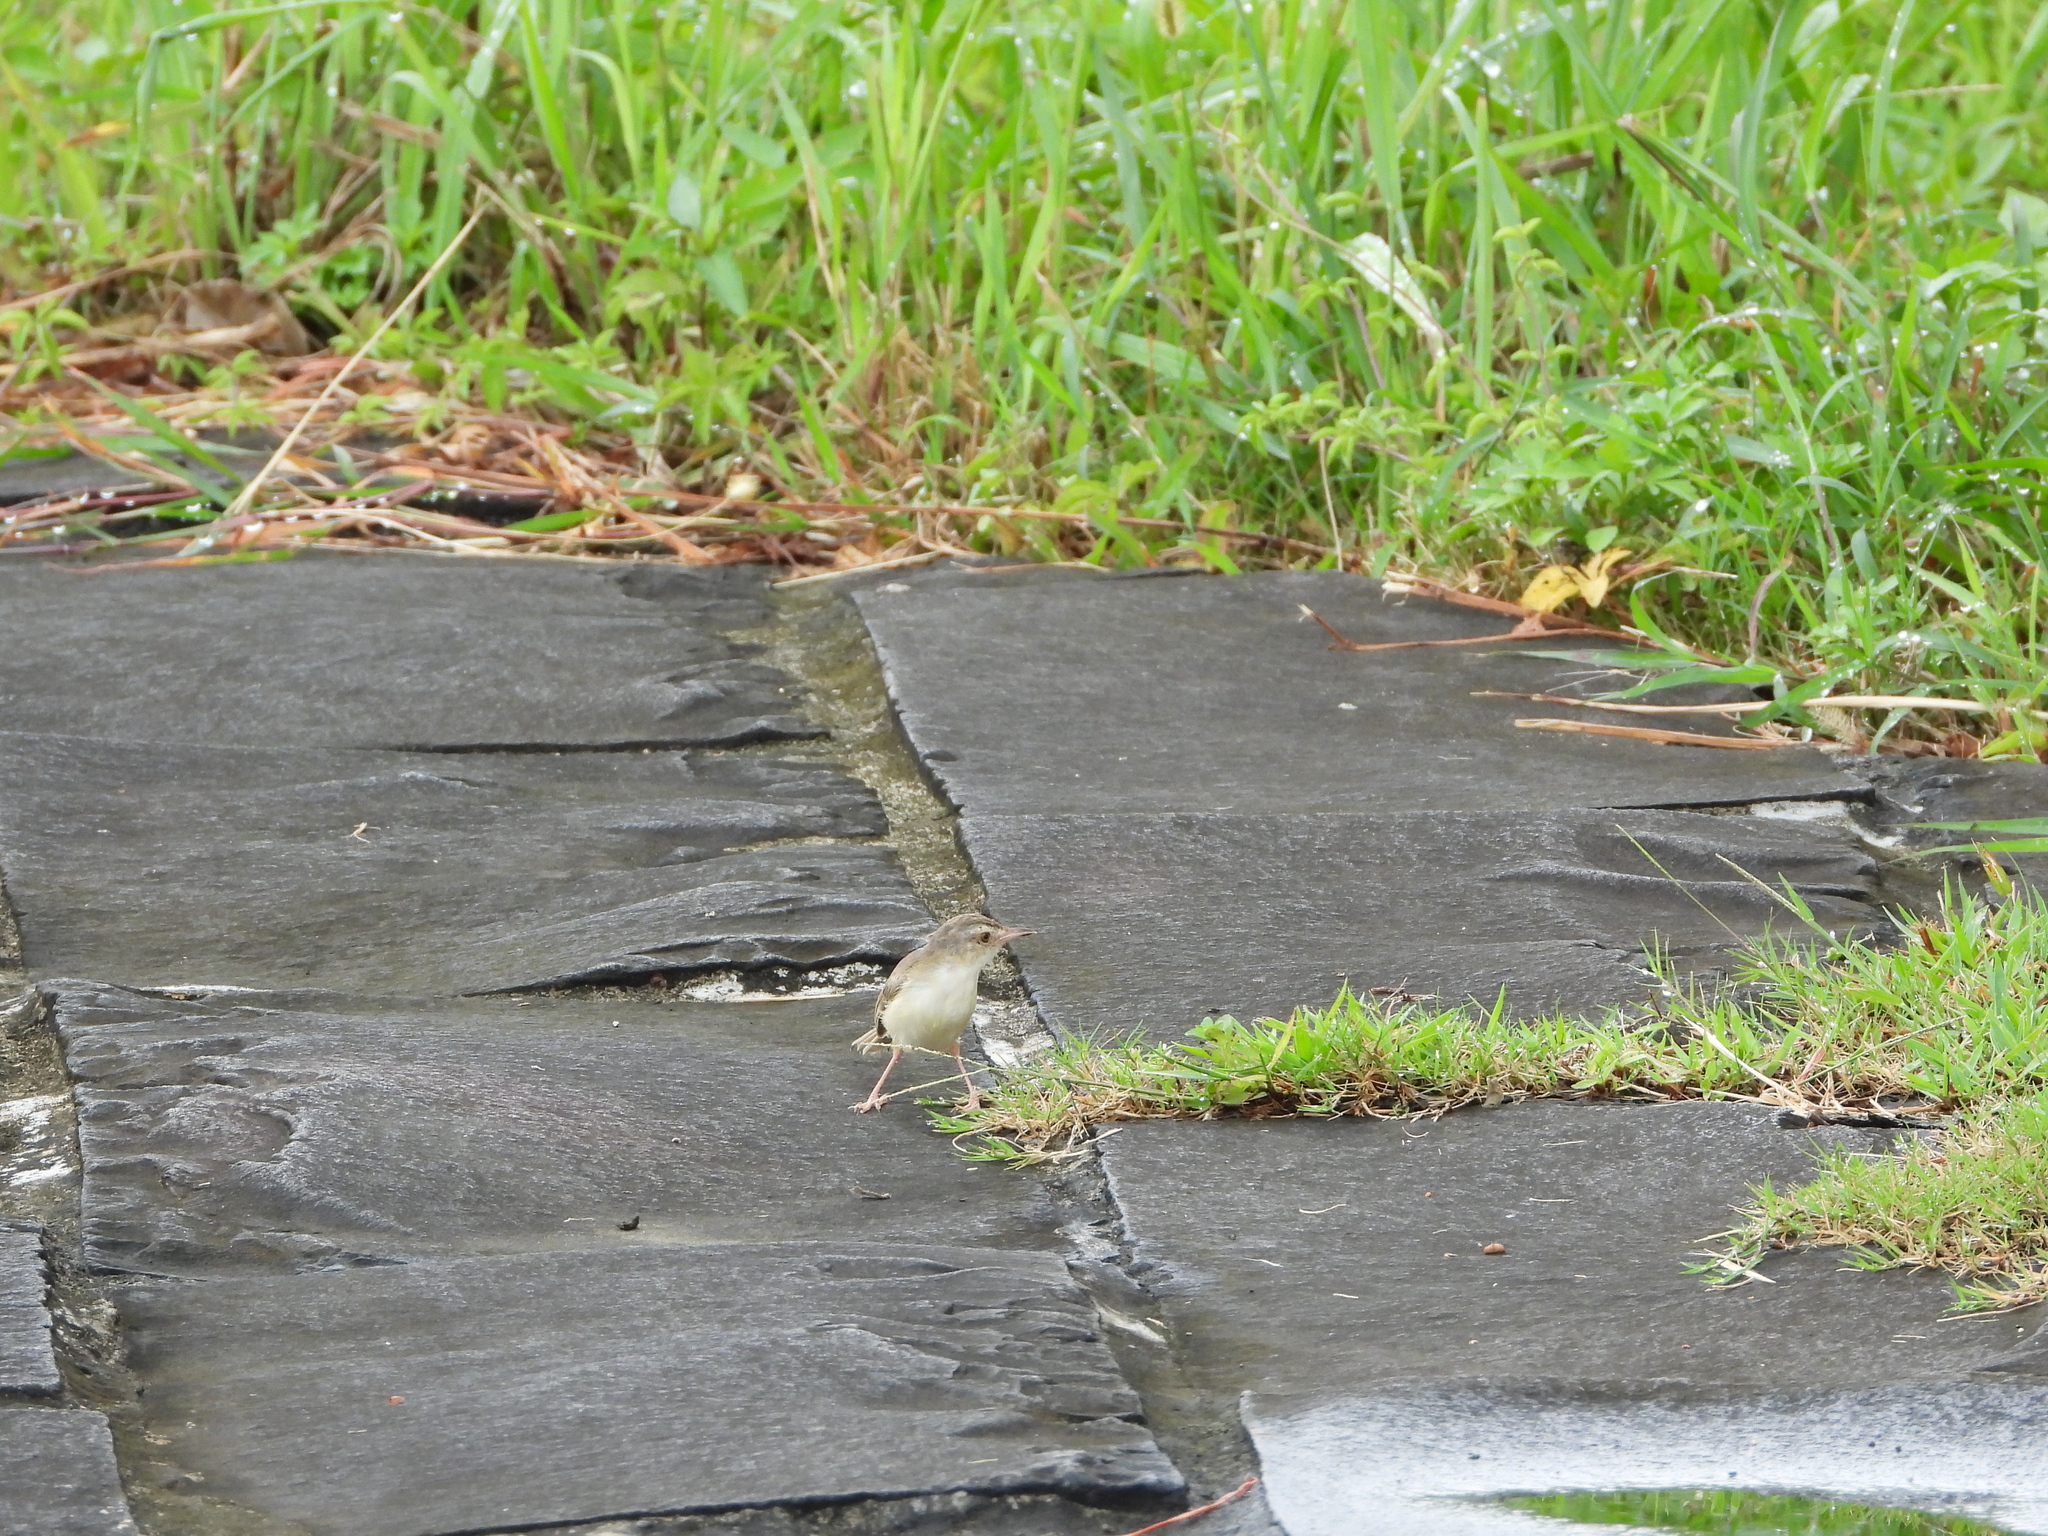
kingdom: Animalia
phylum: Chordata
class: Aves
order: Passeriformes
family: Cisticolidae
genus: Prinia
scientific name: Prinia inornata
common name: Plain prinia
